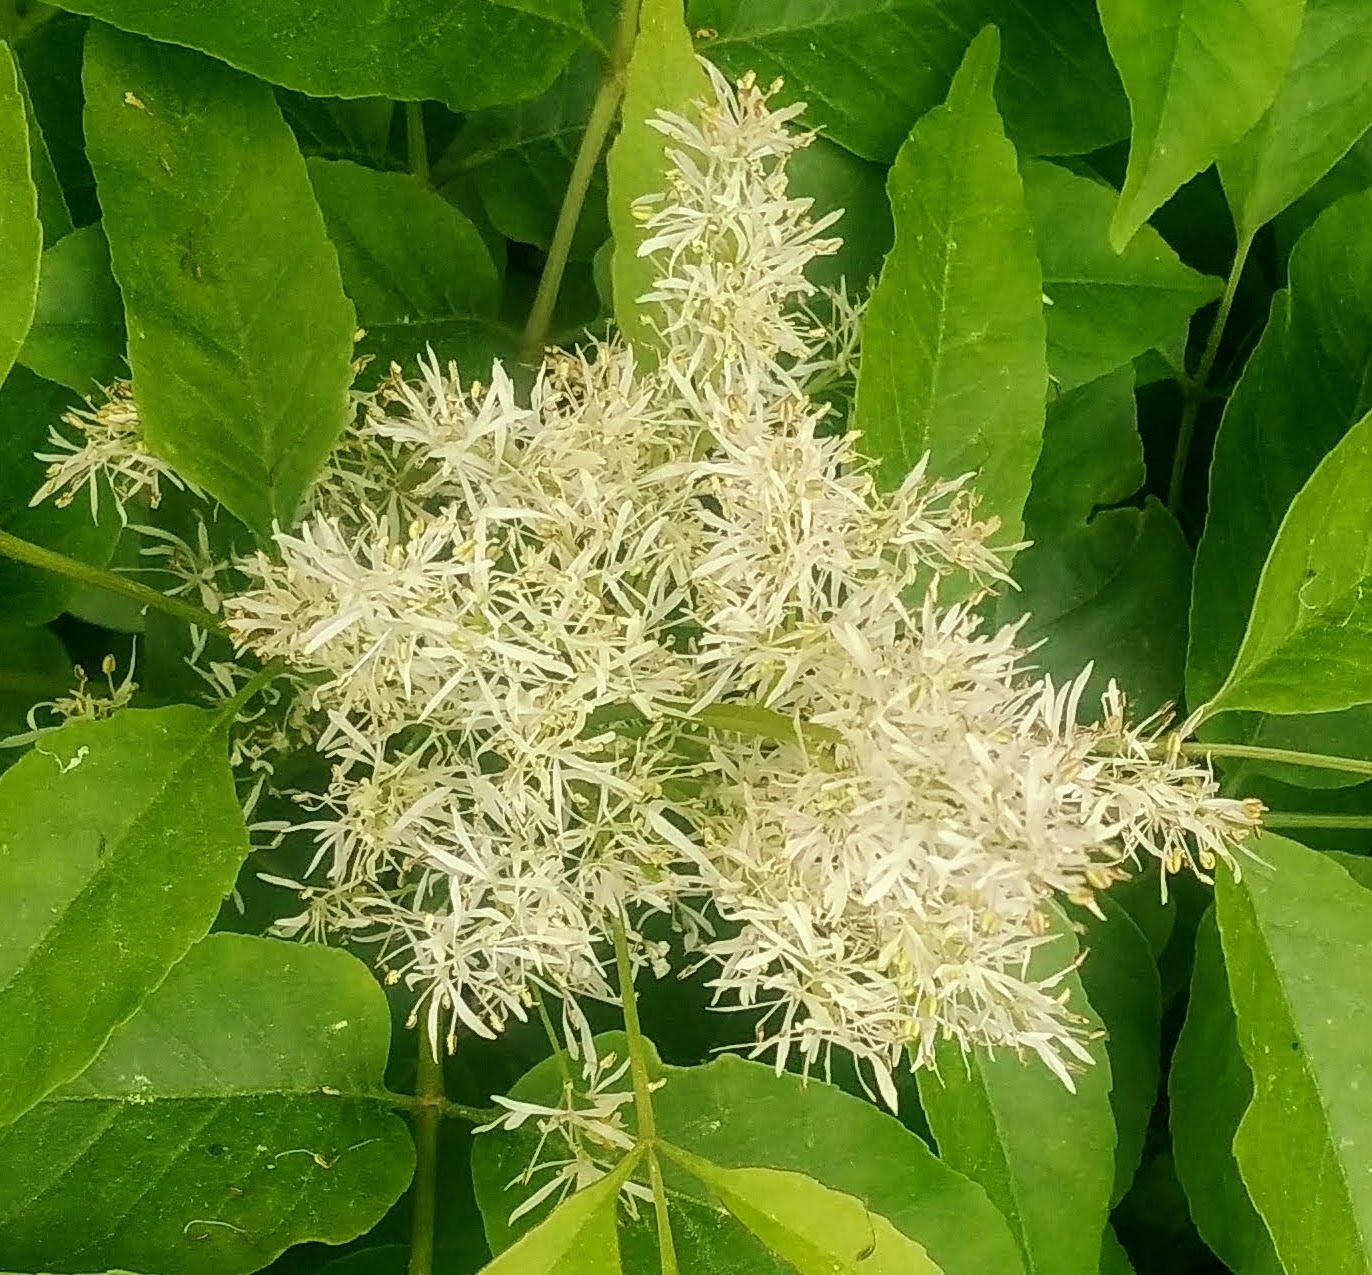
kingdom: Plantae
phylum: Tracheophyta
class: Magnoliopsida
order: Lamiales
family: Oleaceae
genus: Fraxinus
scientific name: Fraxinus ornus
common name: Manna ash
